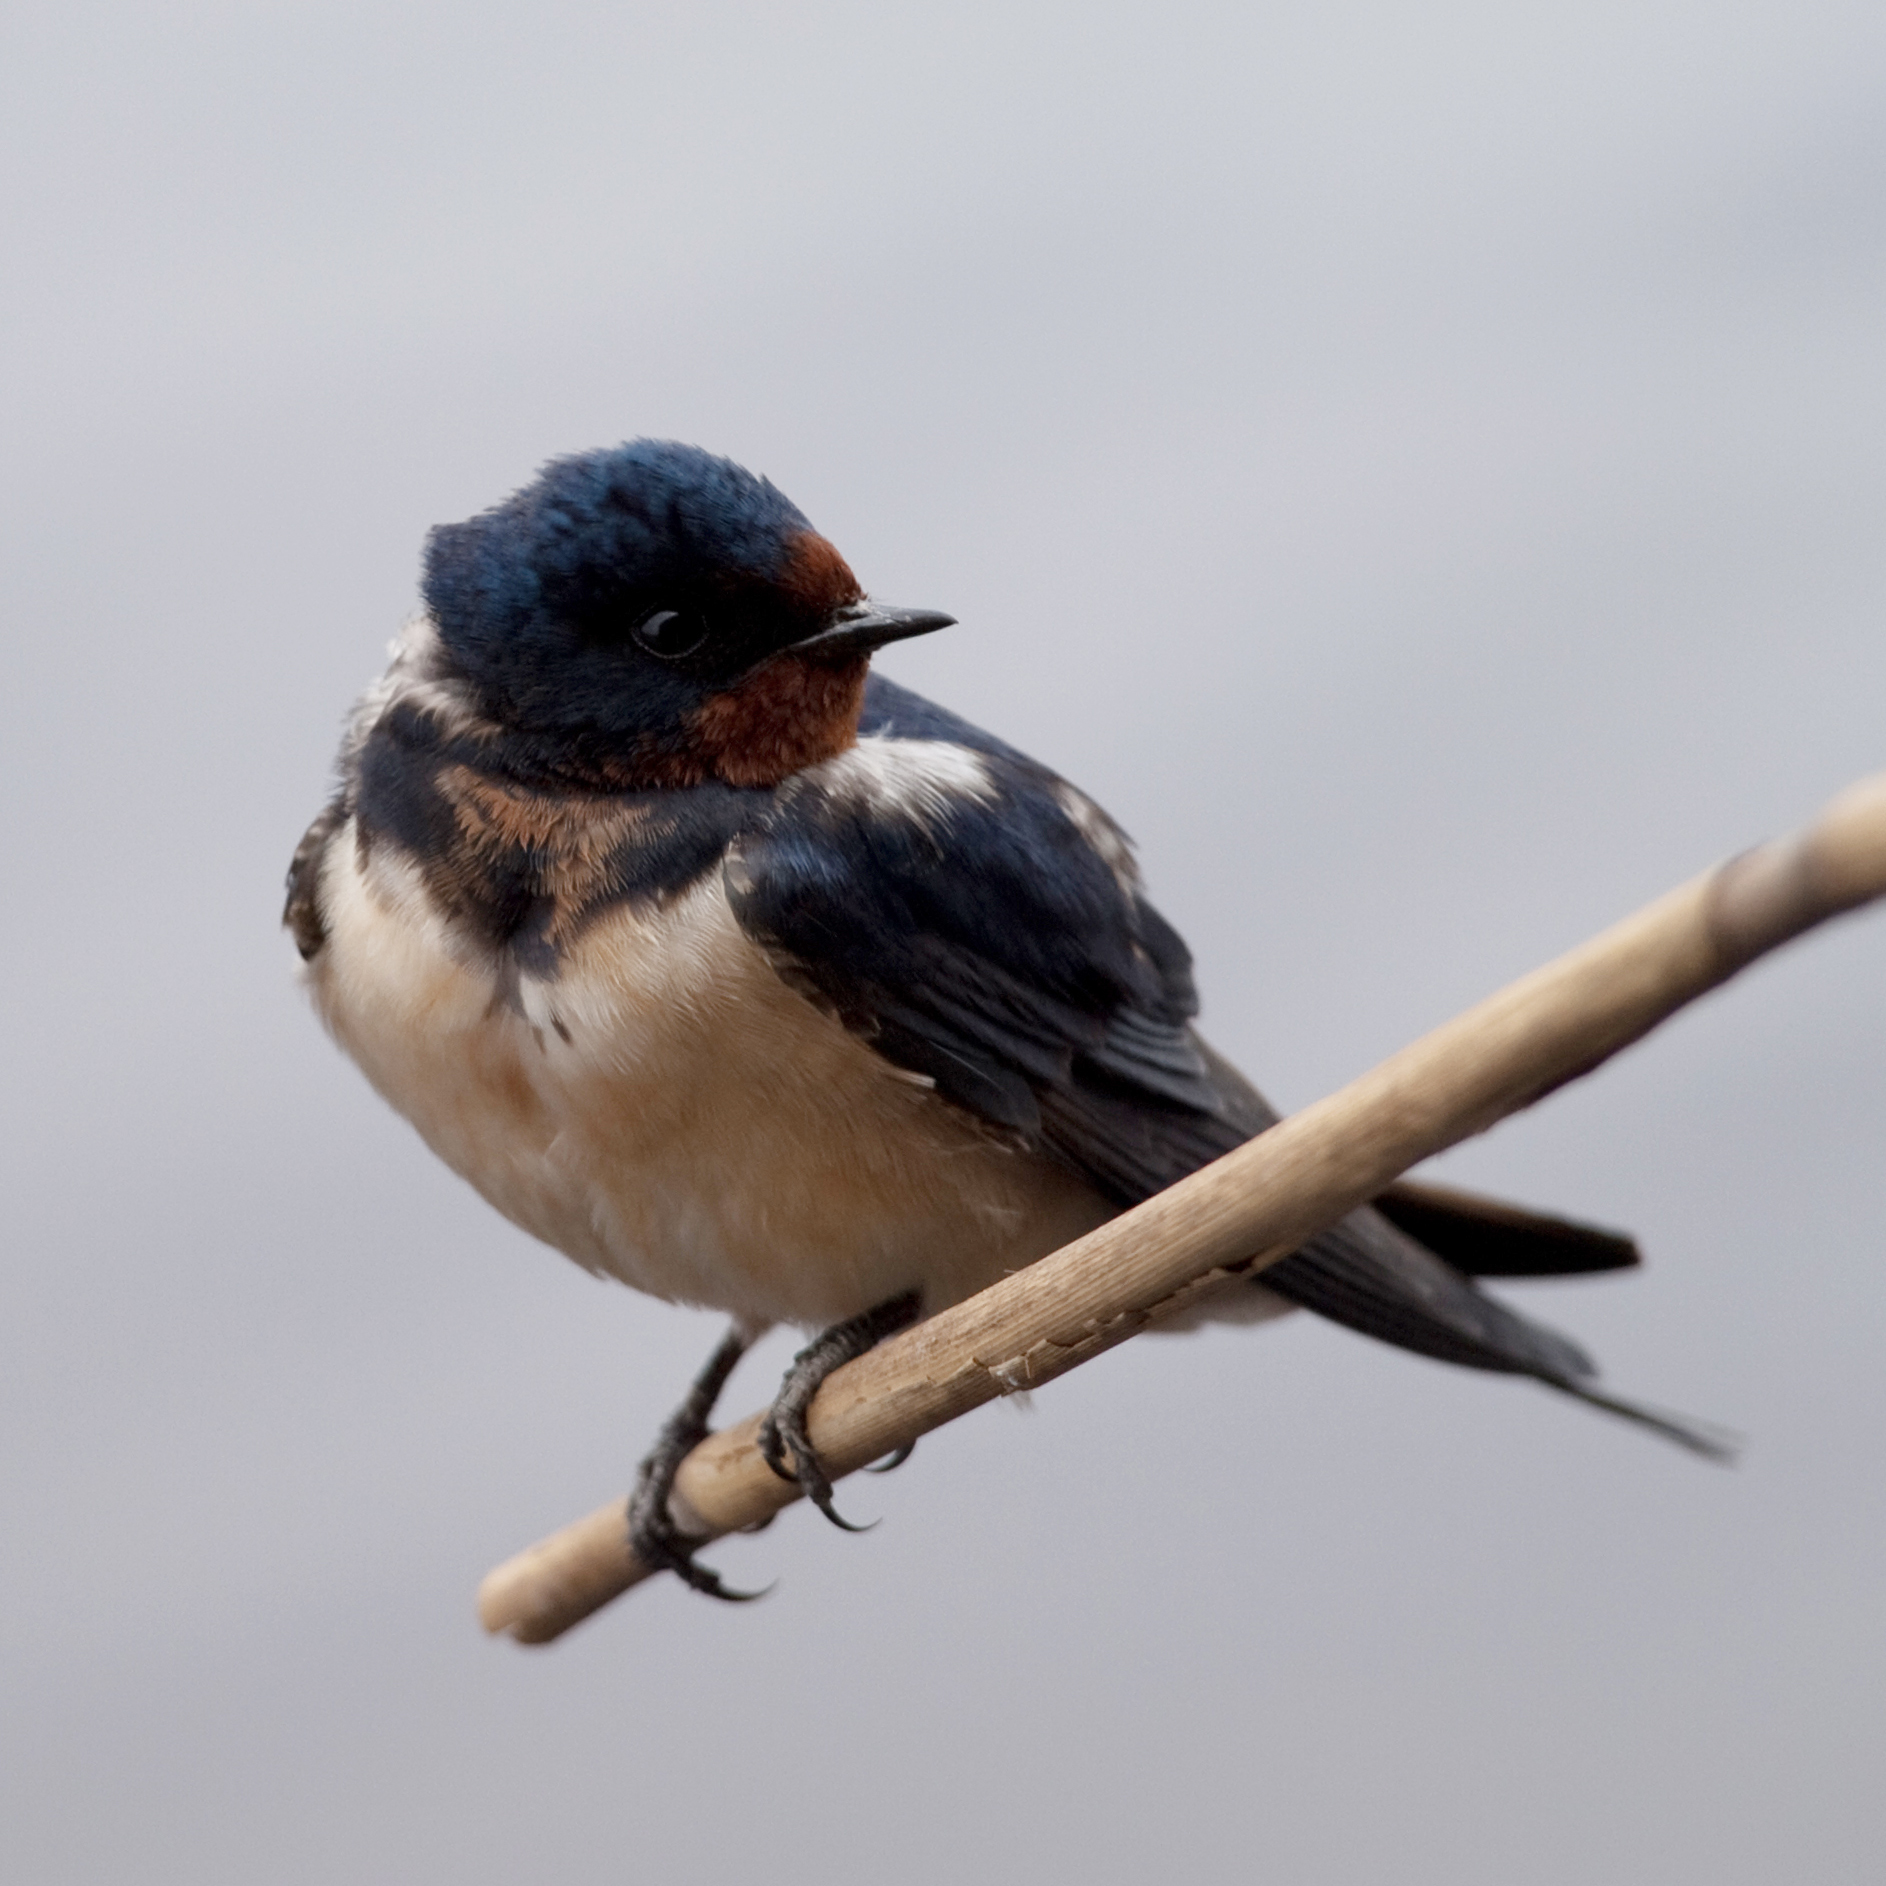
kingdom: Animalia
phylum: Chordata
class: Aves
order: Passeriformes
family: Hirundinidae
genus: Hirundo
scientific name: Hirundo rustica
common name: Barn swallow
